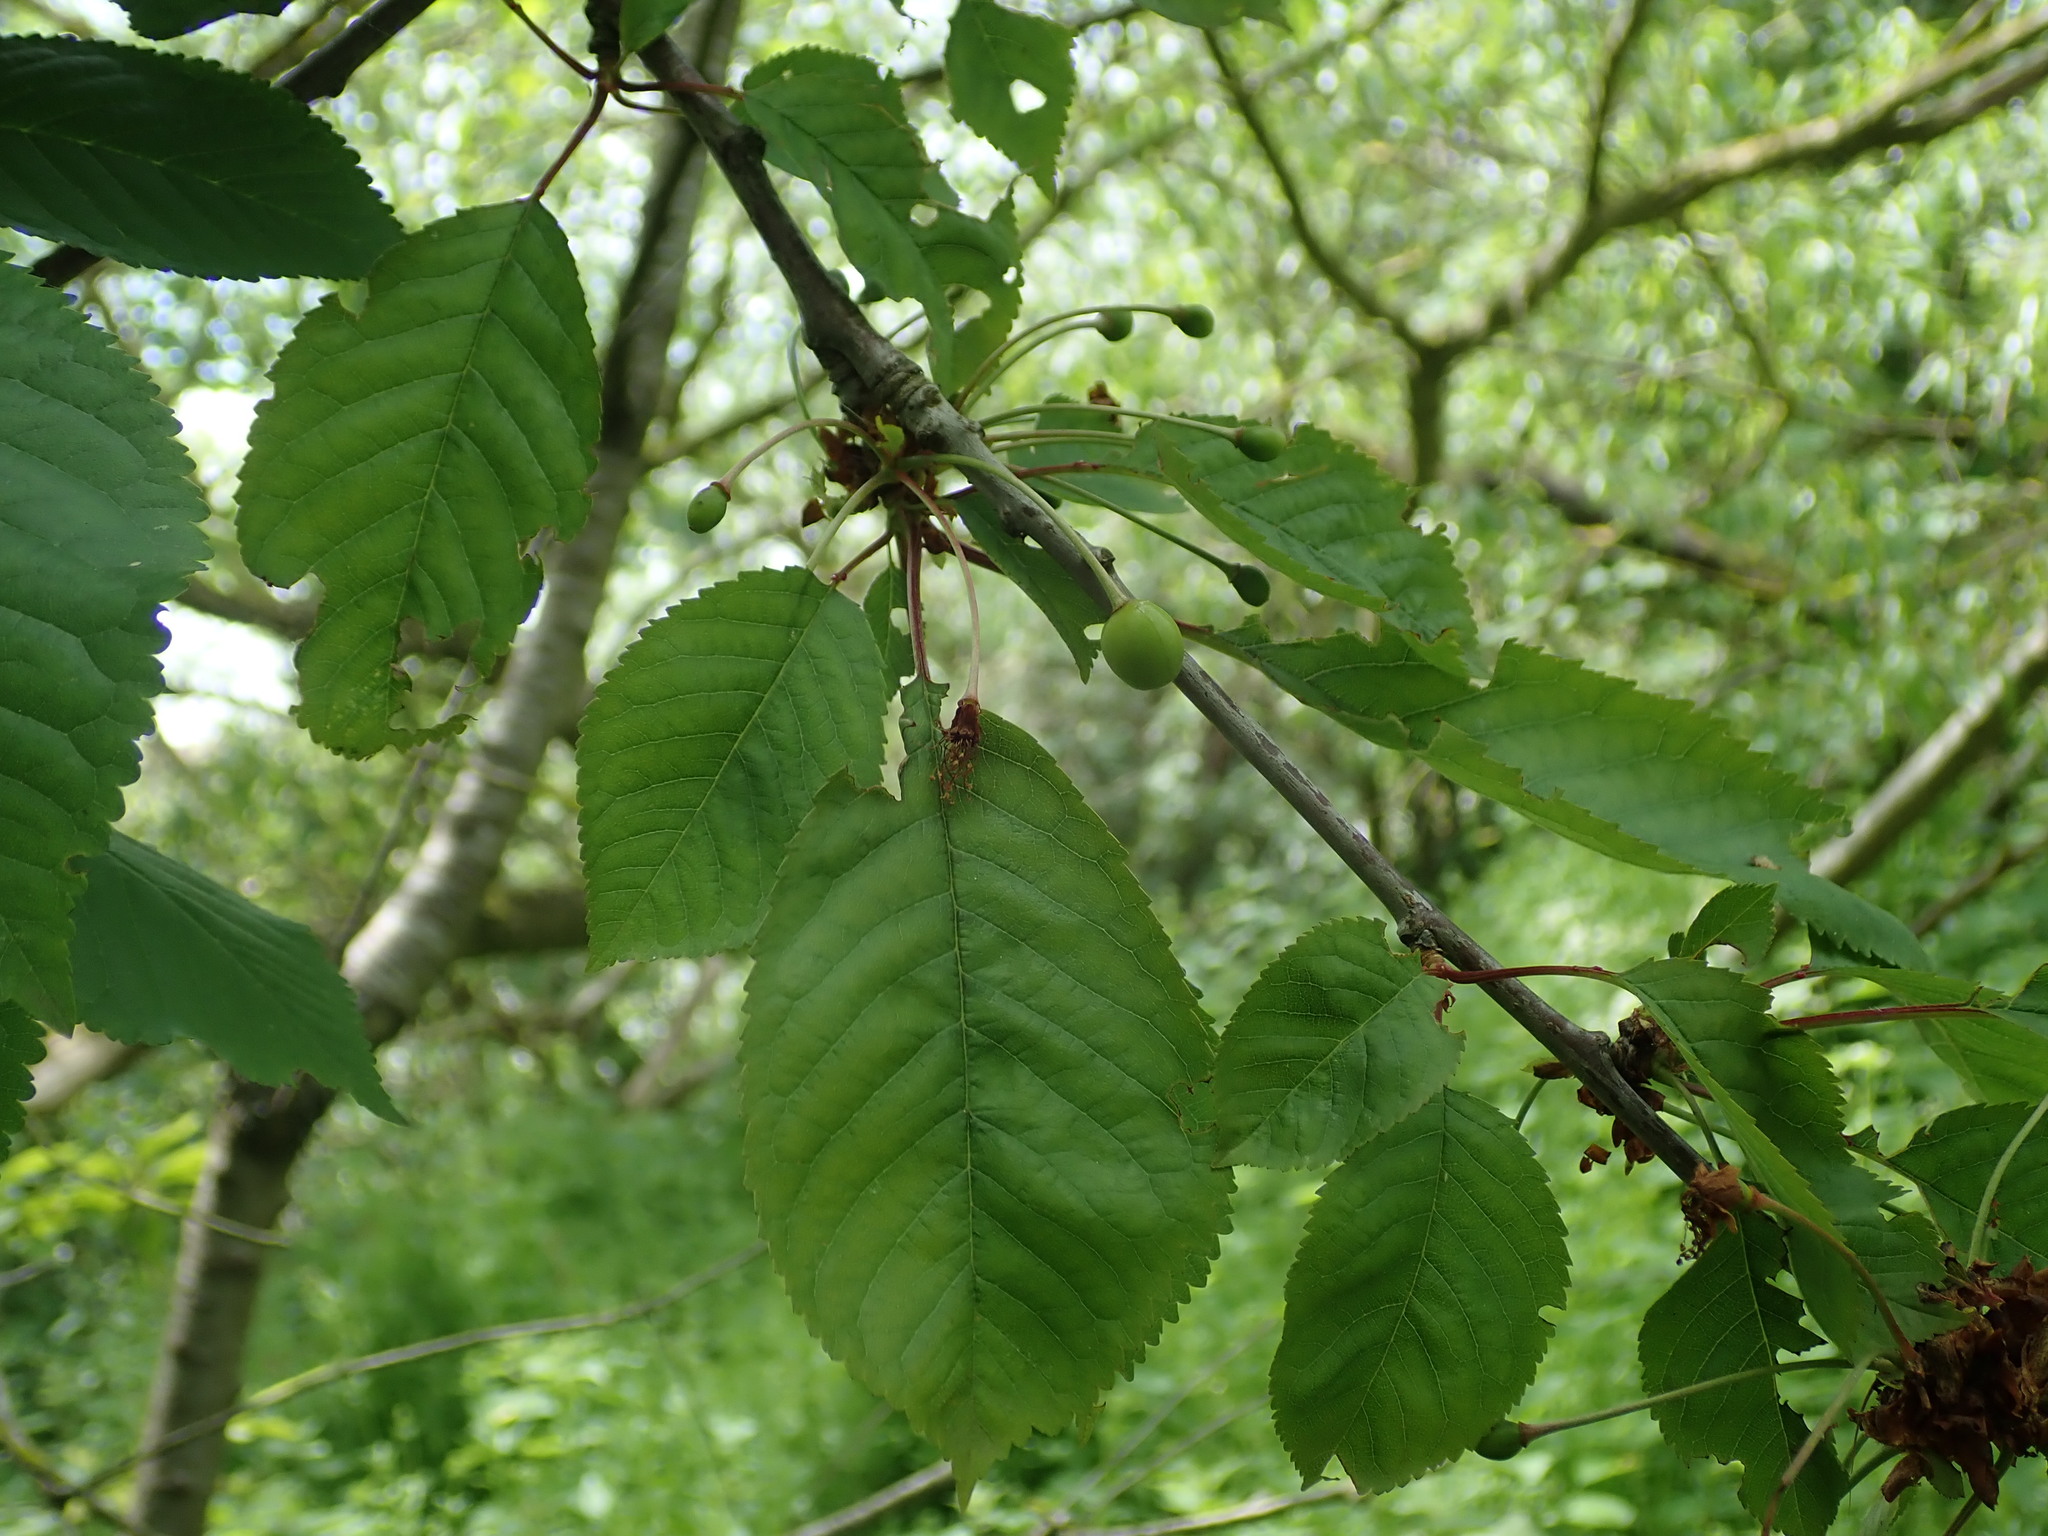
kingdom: Plantae
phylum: Tracheophyta
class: Magnoliopsida
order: Rosales
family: Rosaceae
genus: Prunus
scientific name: Prunus avium
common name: Sweet cherry
